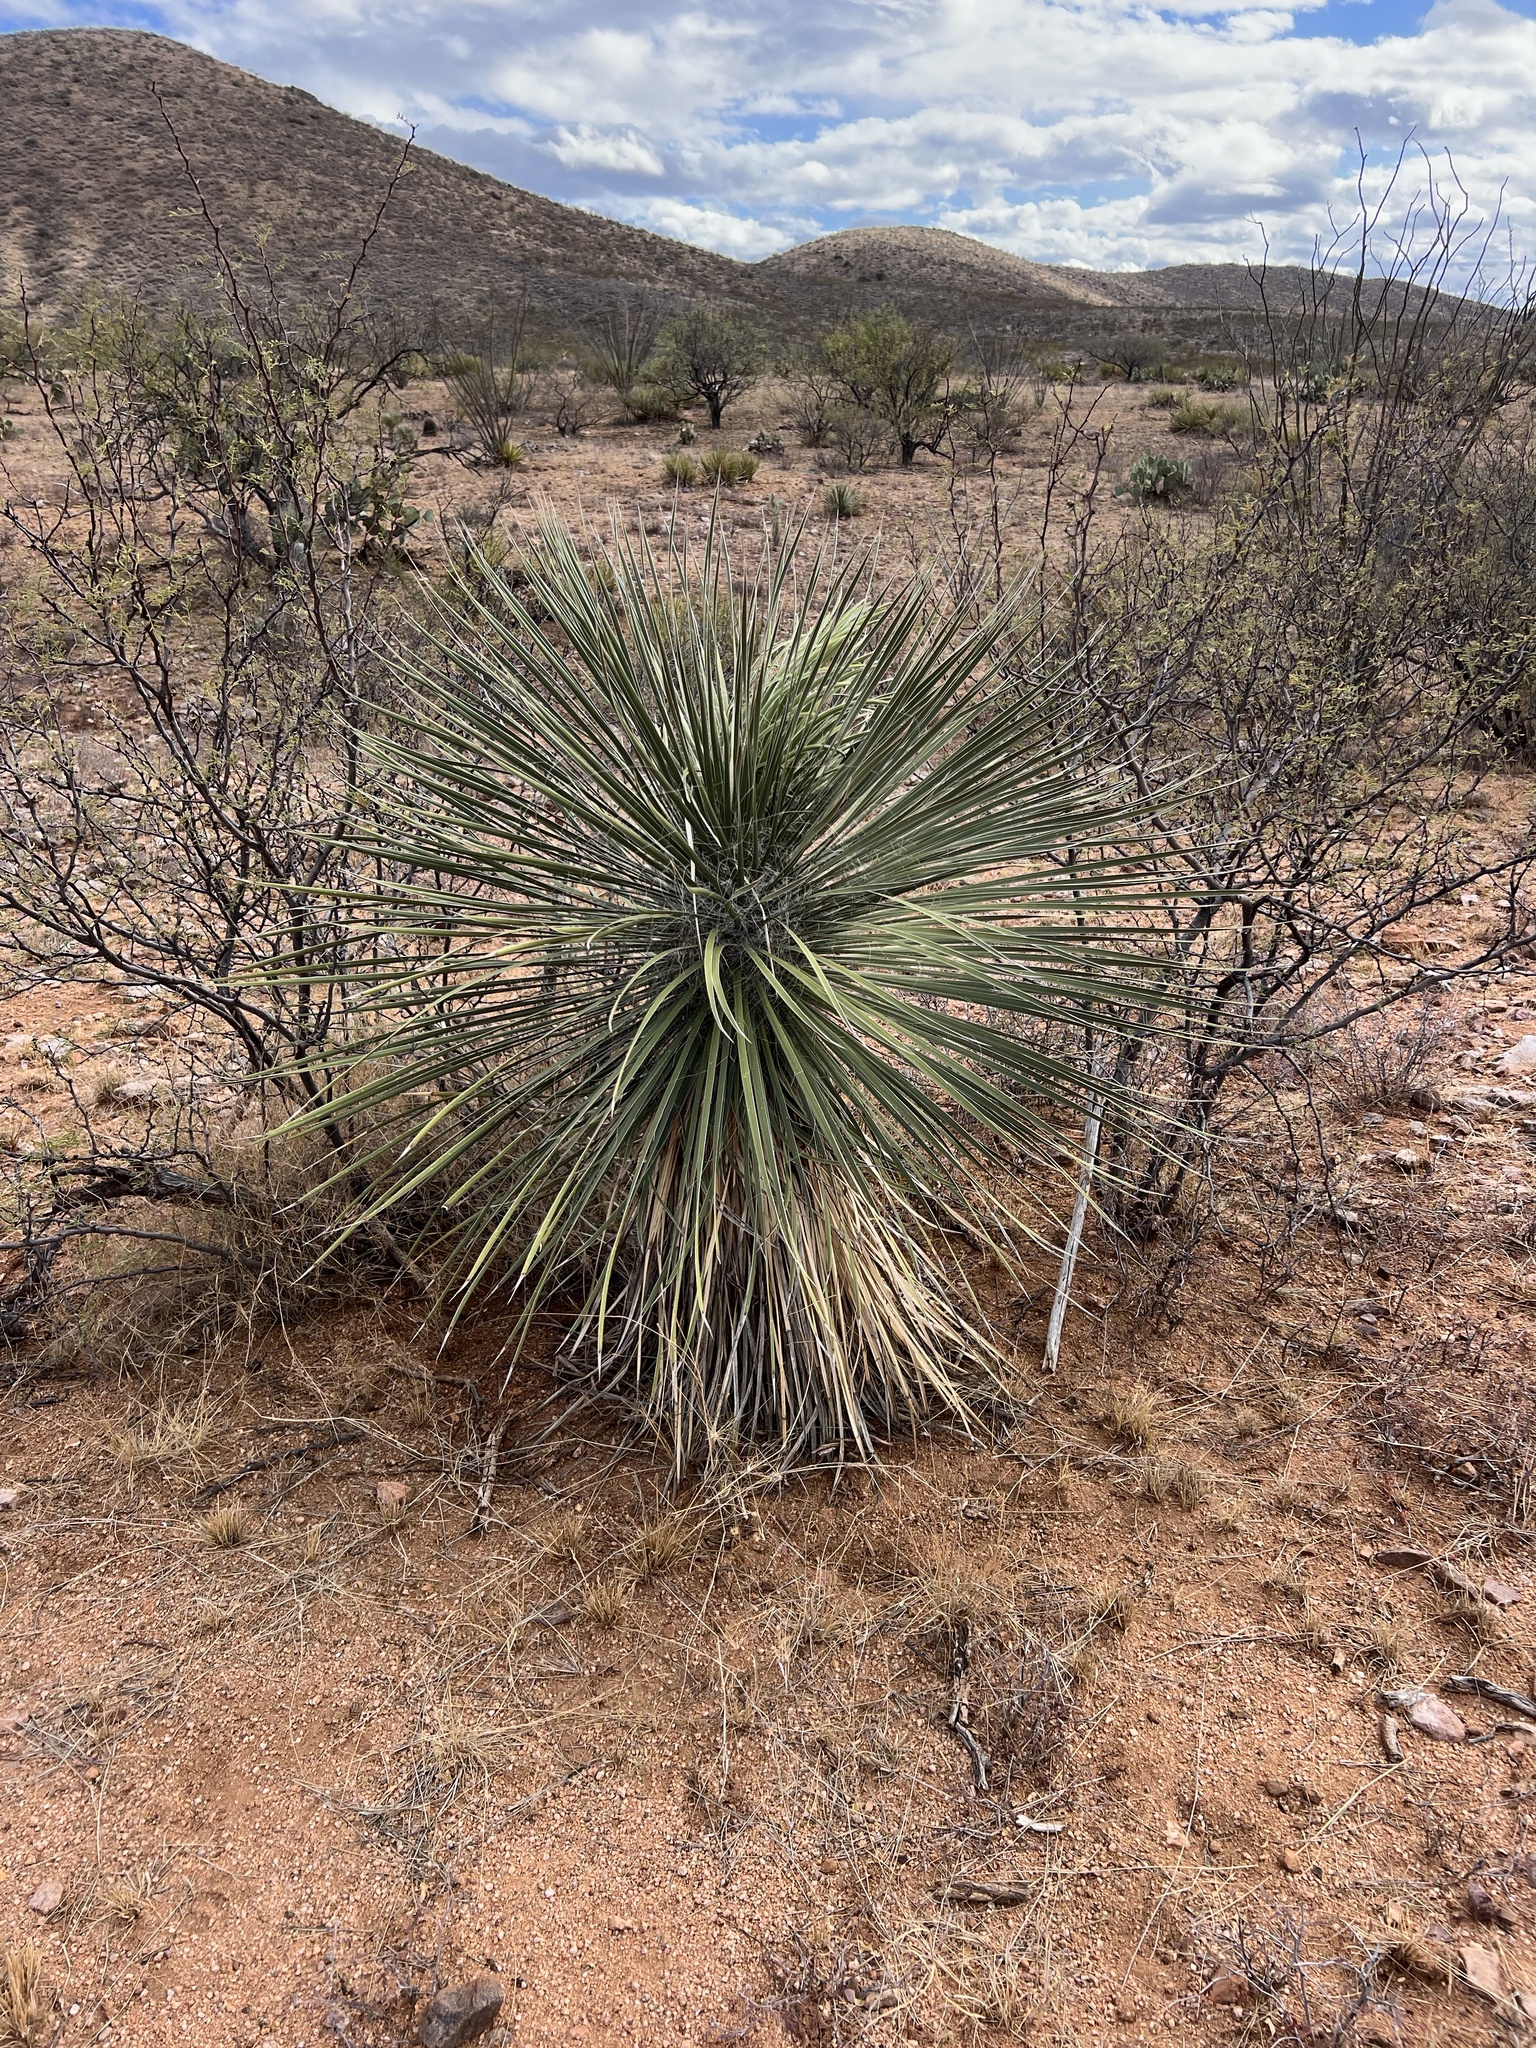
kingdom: Plantae
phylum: Tracheophyta
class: Liliopsida
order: Asparagales
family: Asparagaceae
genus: Yucca
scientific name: Yucca elata
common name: Palmella
